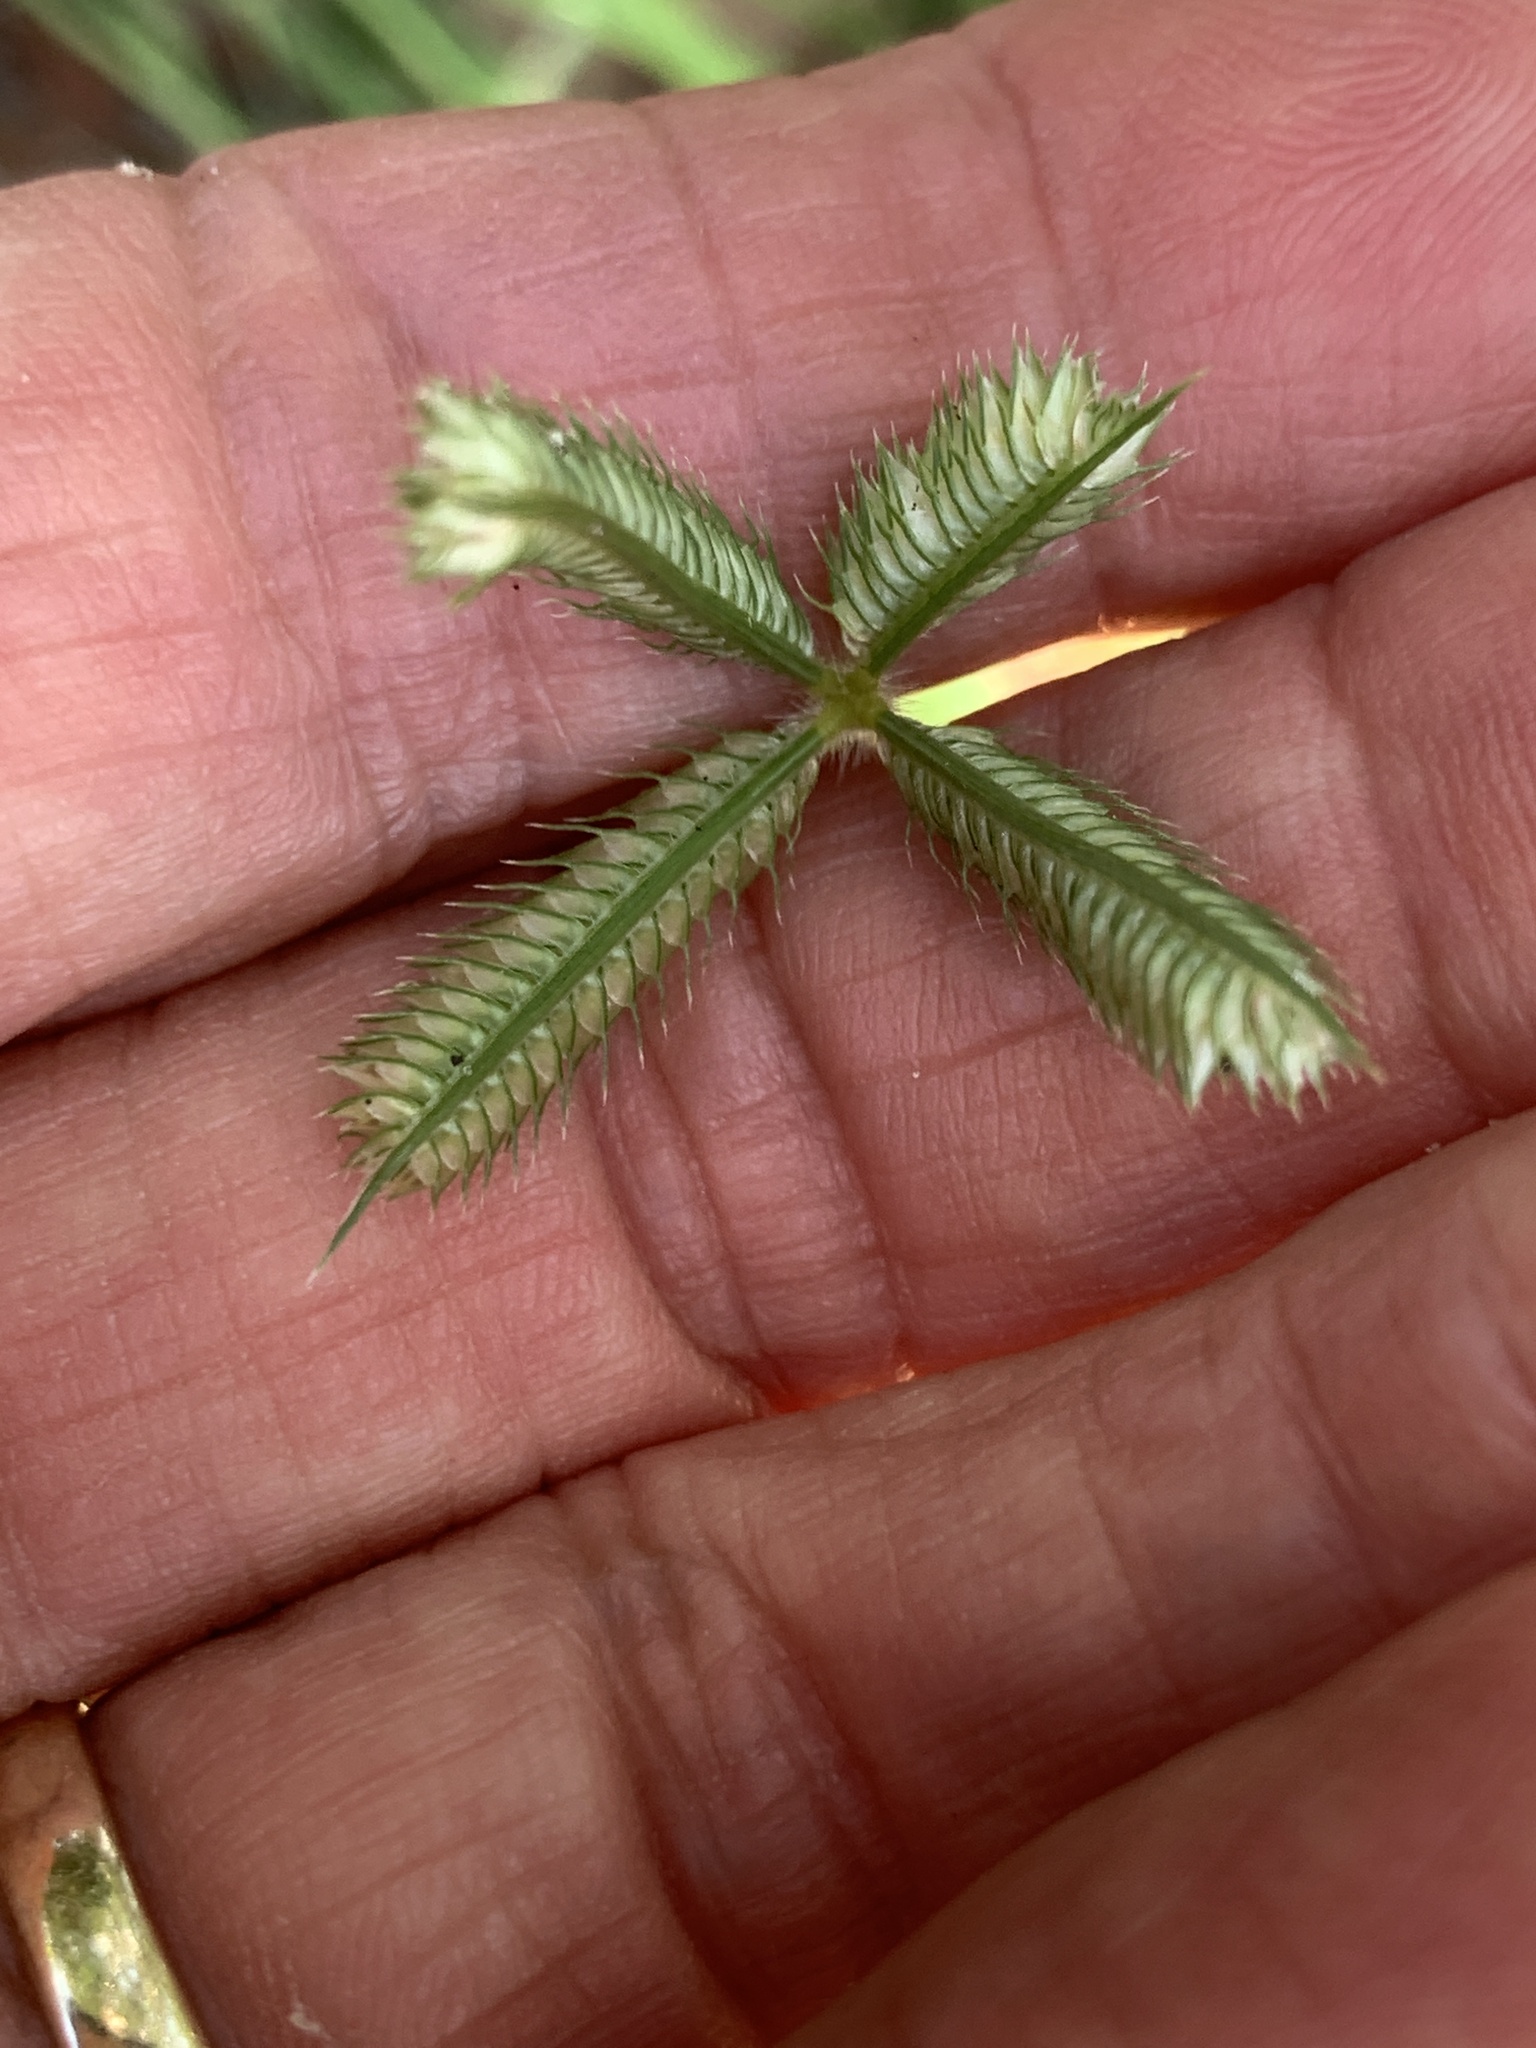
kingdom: Plantae
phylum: Tracheophyta
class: Liliopsida
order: Poales
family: Poaceae
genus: Dactyloctenium
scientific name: Dactyloctenium aegyptium
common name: Egyptian grass
